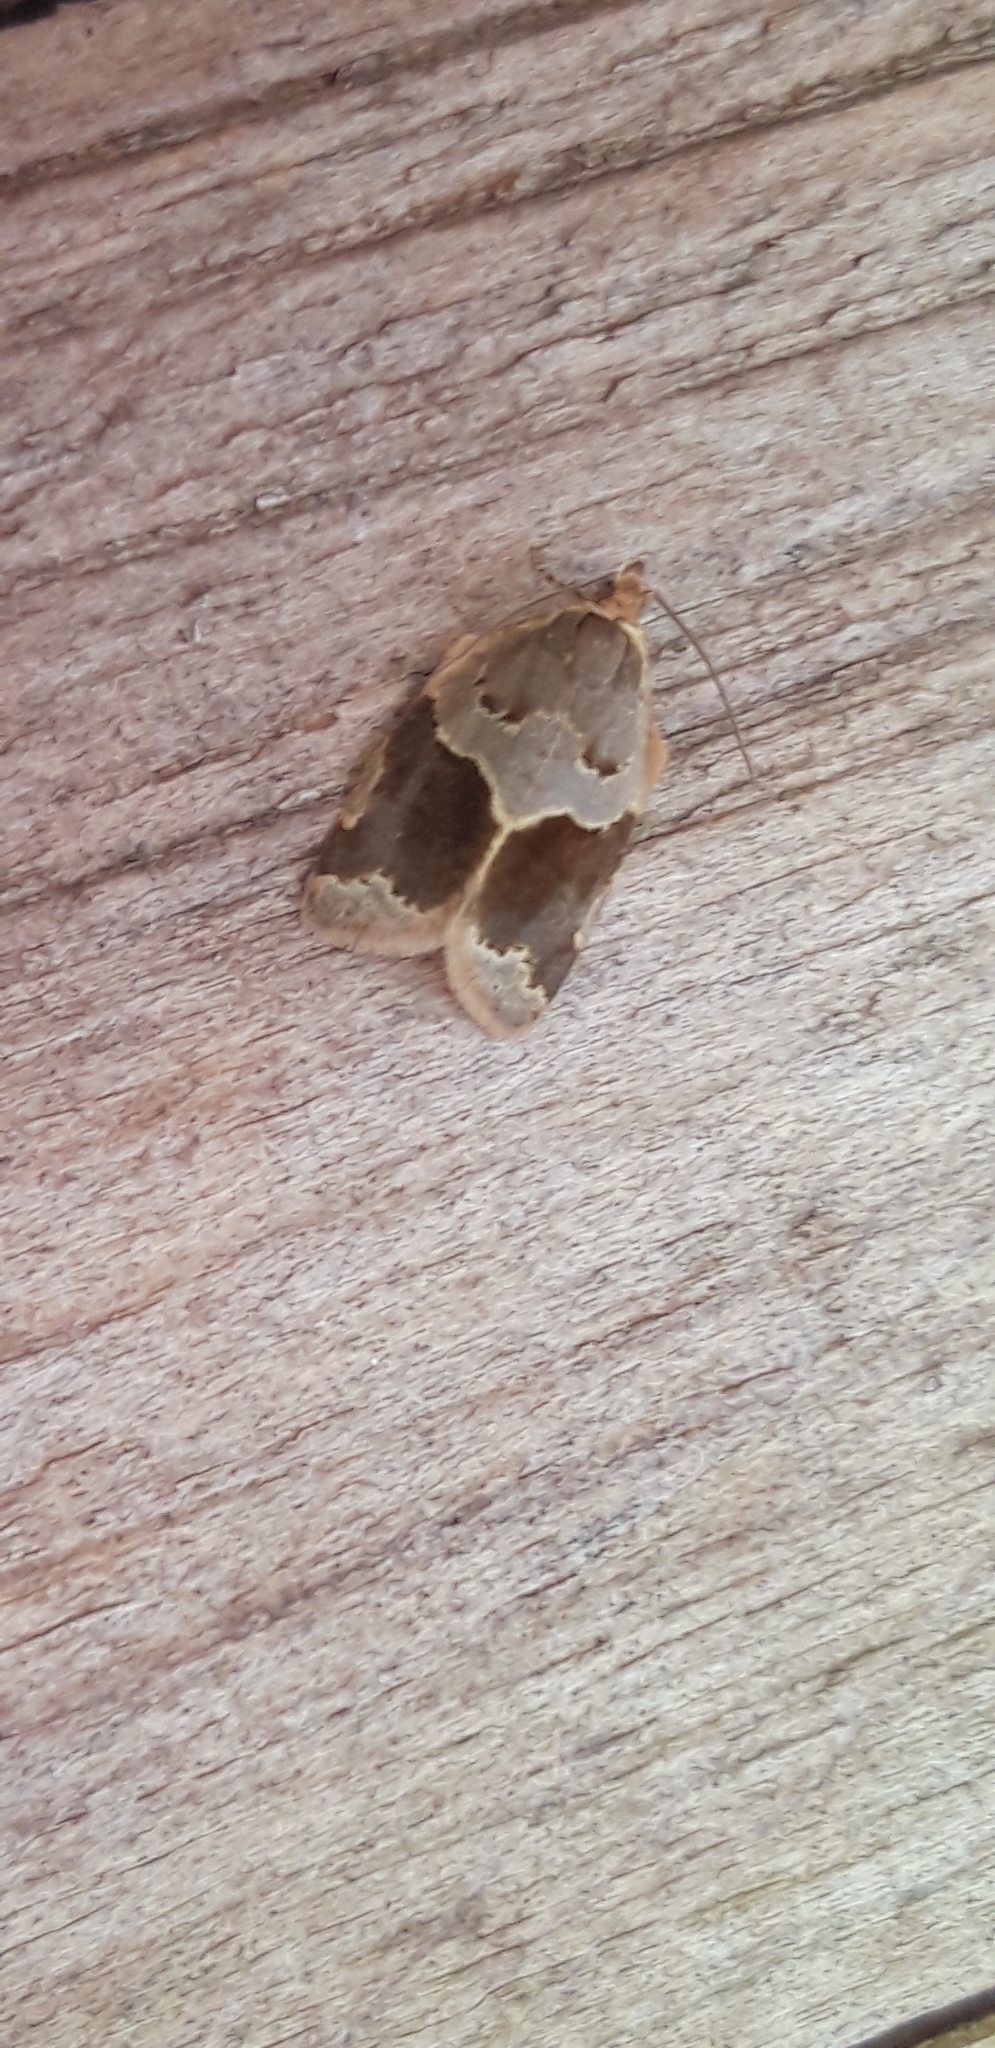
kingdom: Animalia
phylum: Arthropoda
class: Insecta
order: Lepidoptera
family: Tortricidae
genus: Clepsis
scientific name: Clepsis dumicolana
